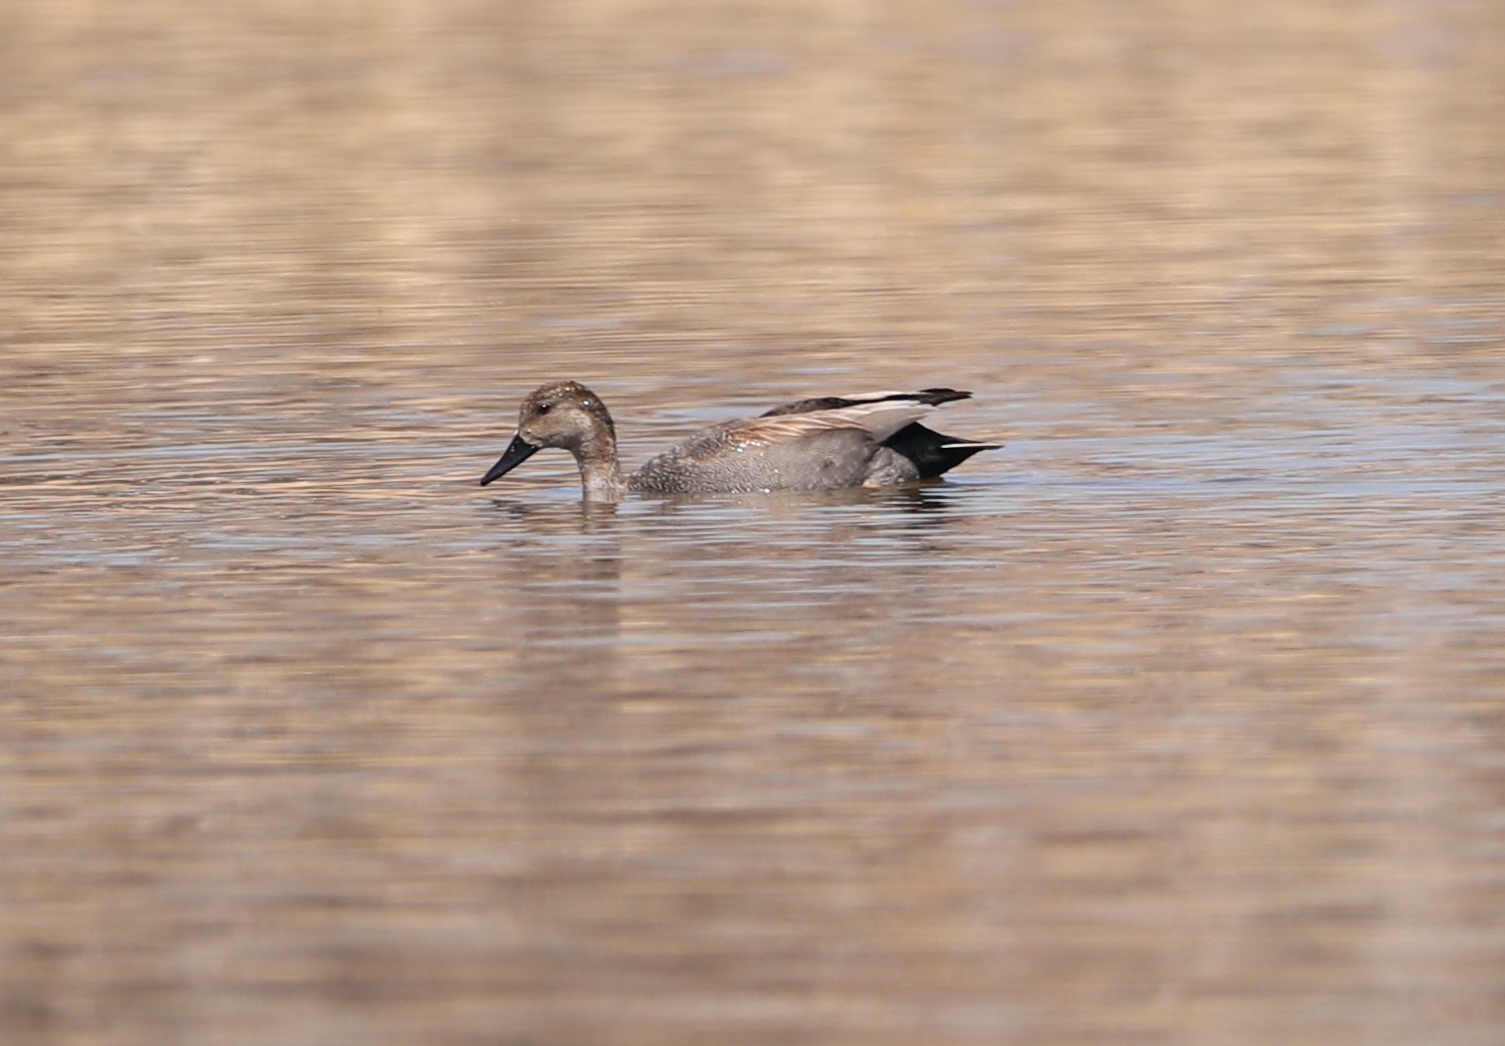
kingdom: Animalia
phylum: Chordata
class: Aves
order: Anseriformes
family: Anatidae
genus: Mareca
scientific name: Mareca strepera
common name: Gadwall
